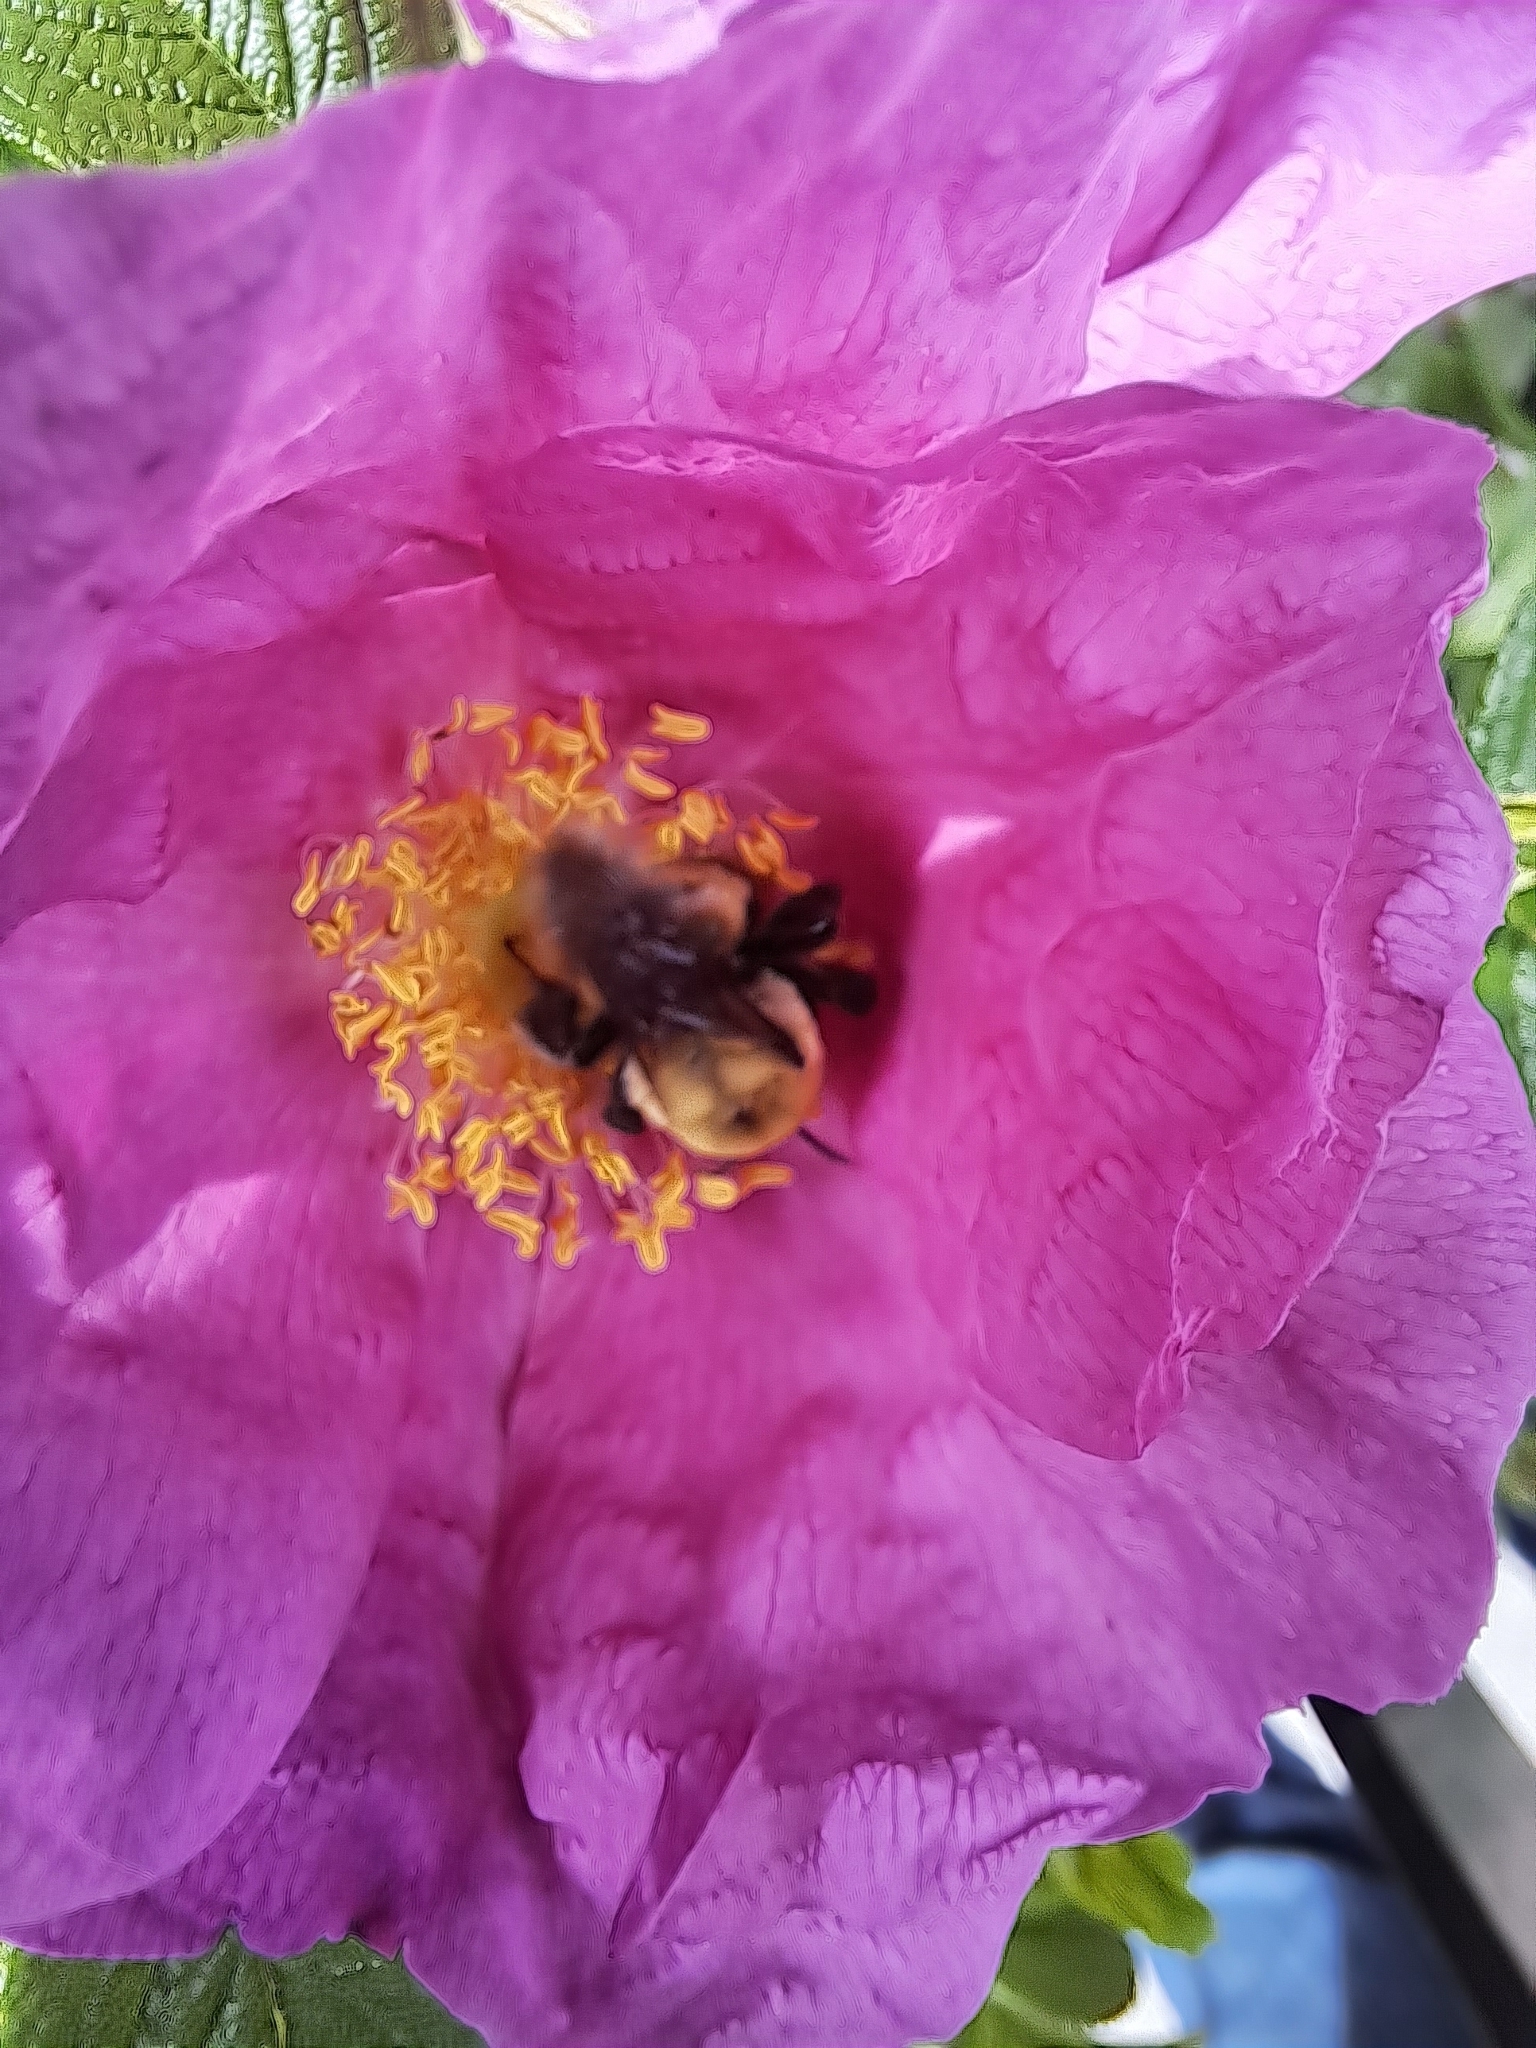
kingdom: Animalia
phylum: Arthropoda
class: Insecta
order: Hymenoptera
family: Apidae
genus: Bombus
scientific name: Bombus griseocollis
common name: Brown-belted bumble bee
